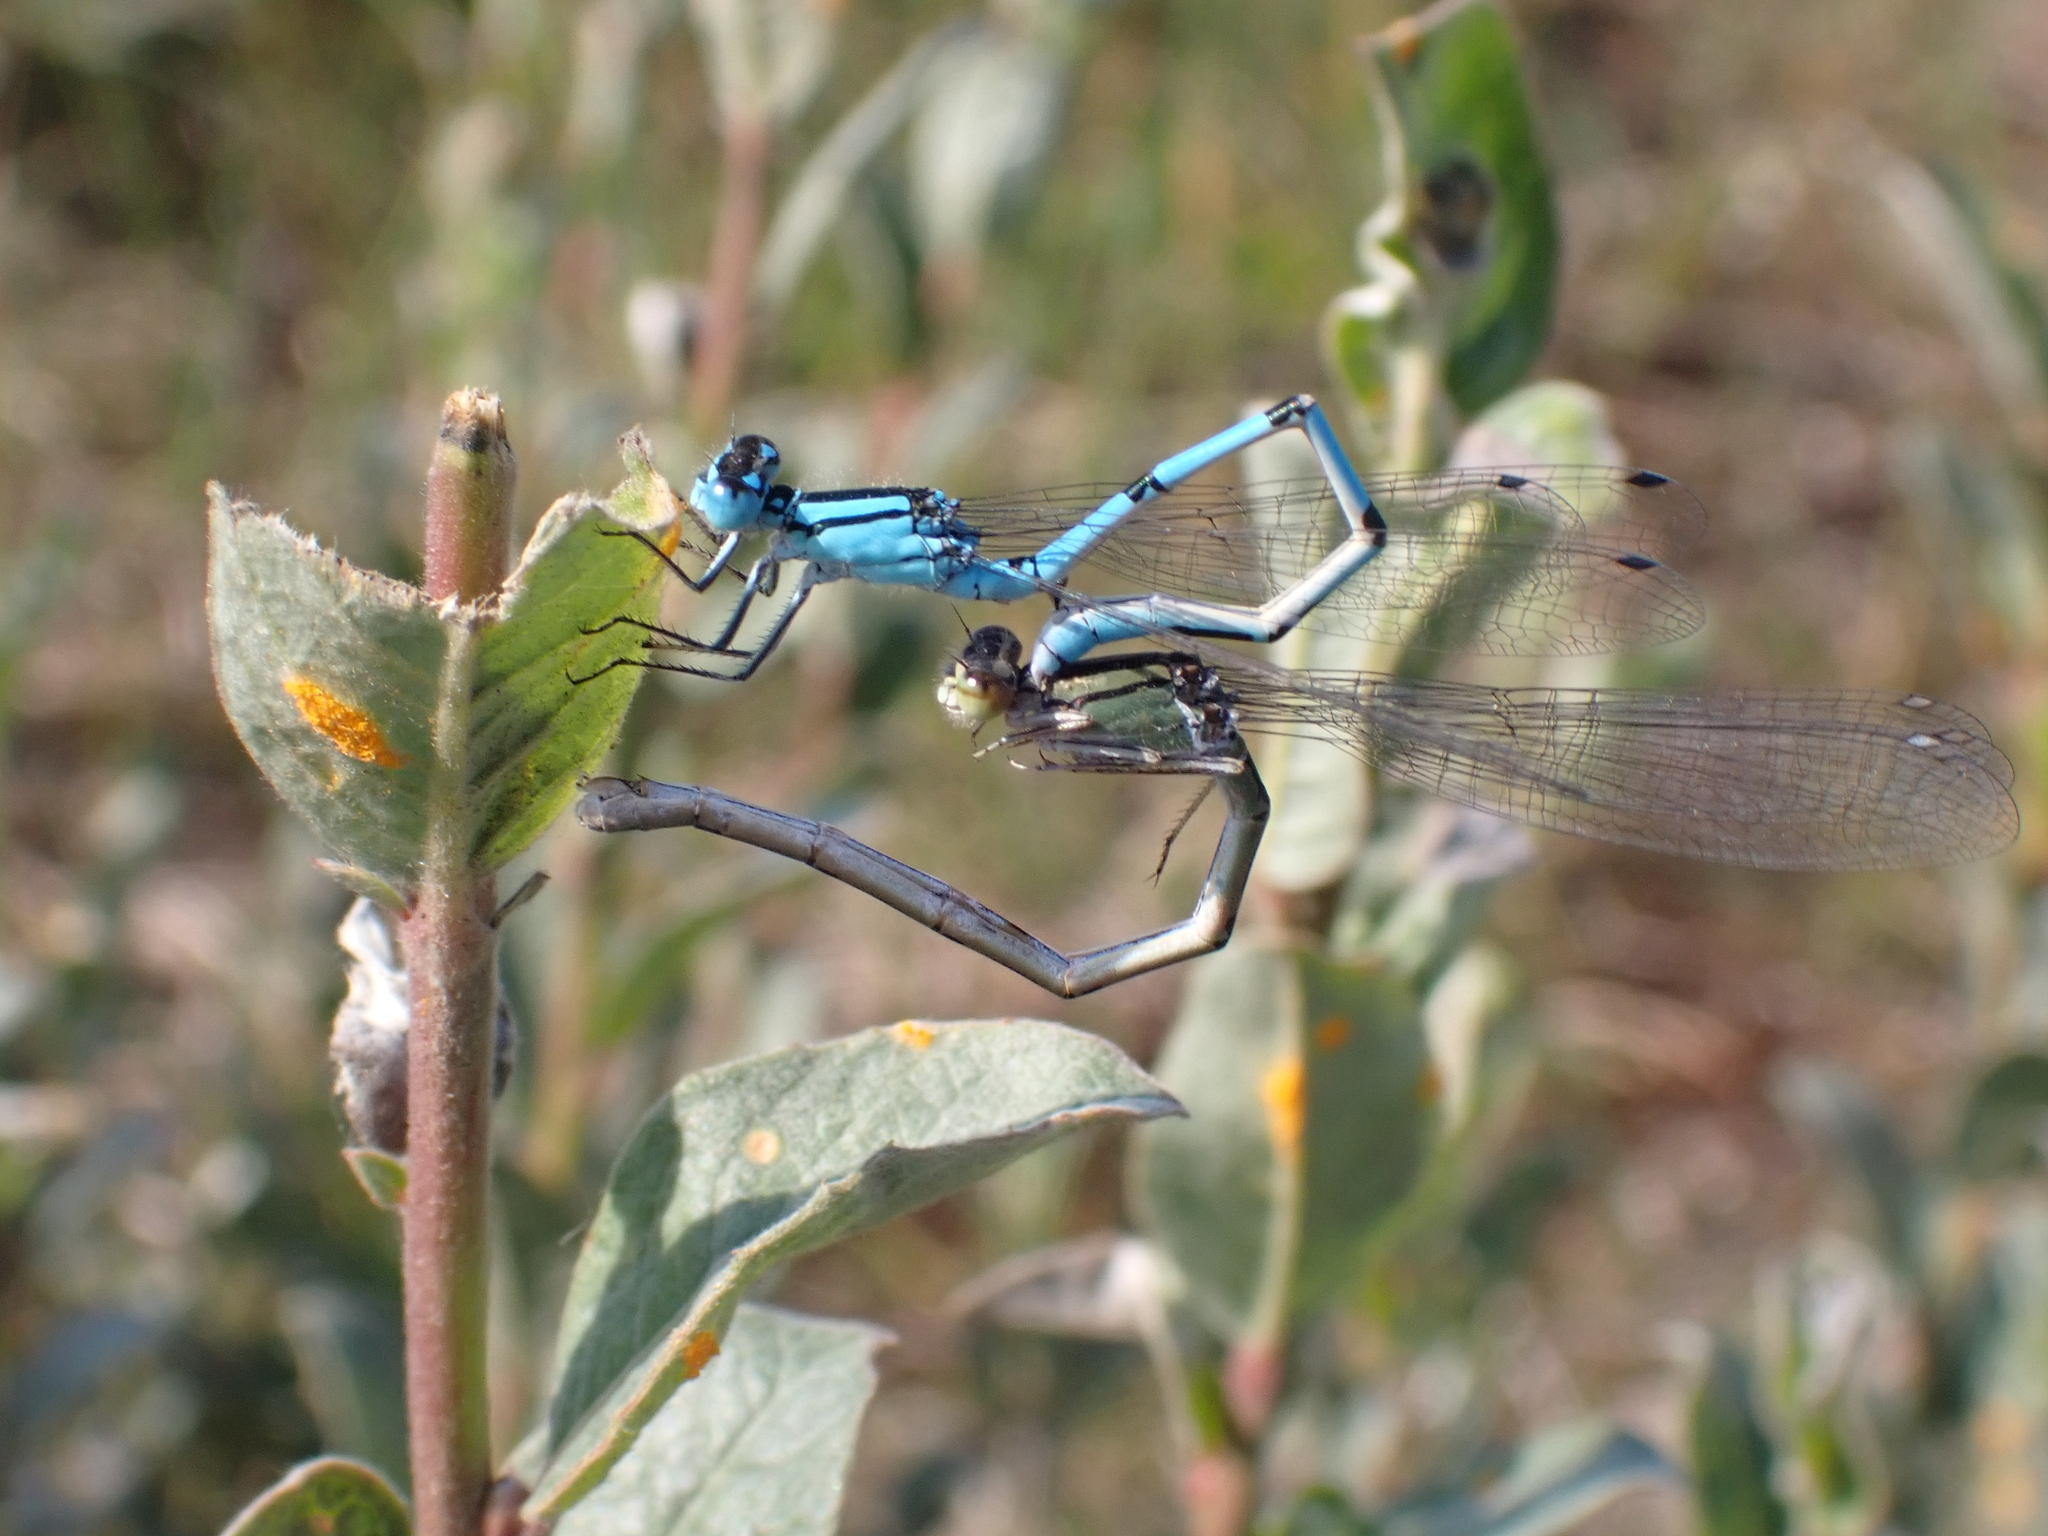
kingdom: Animalia
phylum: Arthropoda
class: Insecta
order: Odonata
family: Coenagrionidae
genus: Enallagma
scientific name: Enallagma cyathigerum
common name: Common blue damselfly
